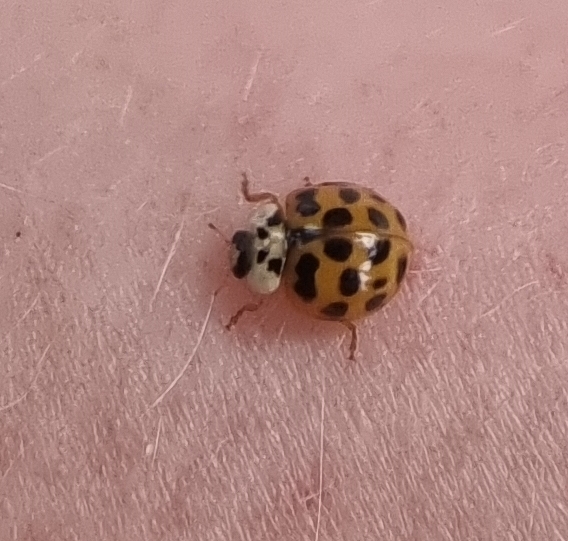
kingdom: Animalia
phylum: Arthropoda
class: Insecta
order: Coleoptera
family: Coccinellidae
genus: Harmonia
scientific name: Harmonia axyridis
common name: Harlequin ladybird
